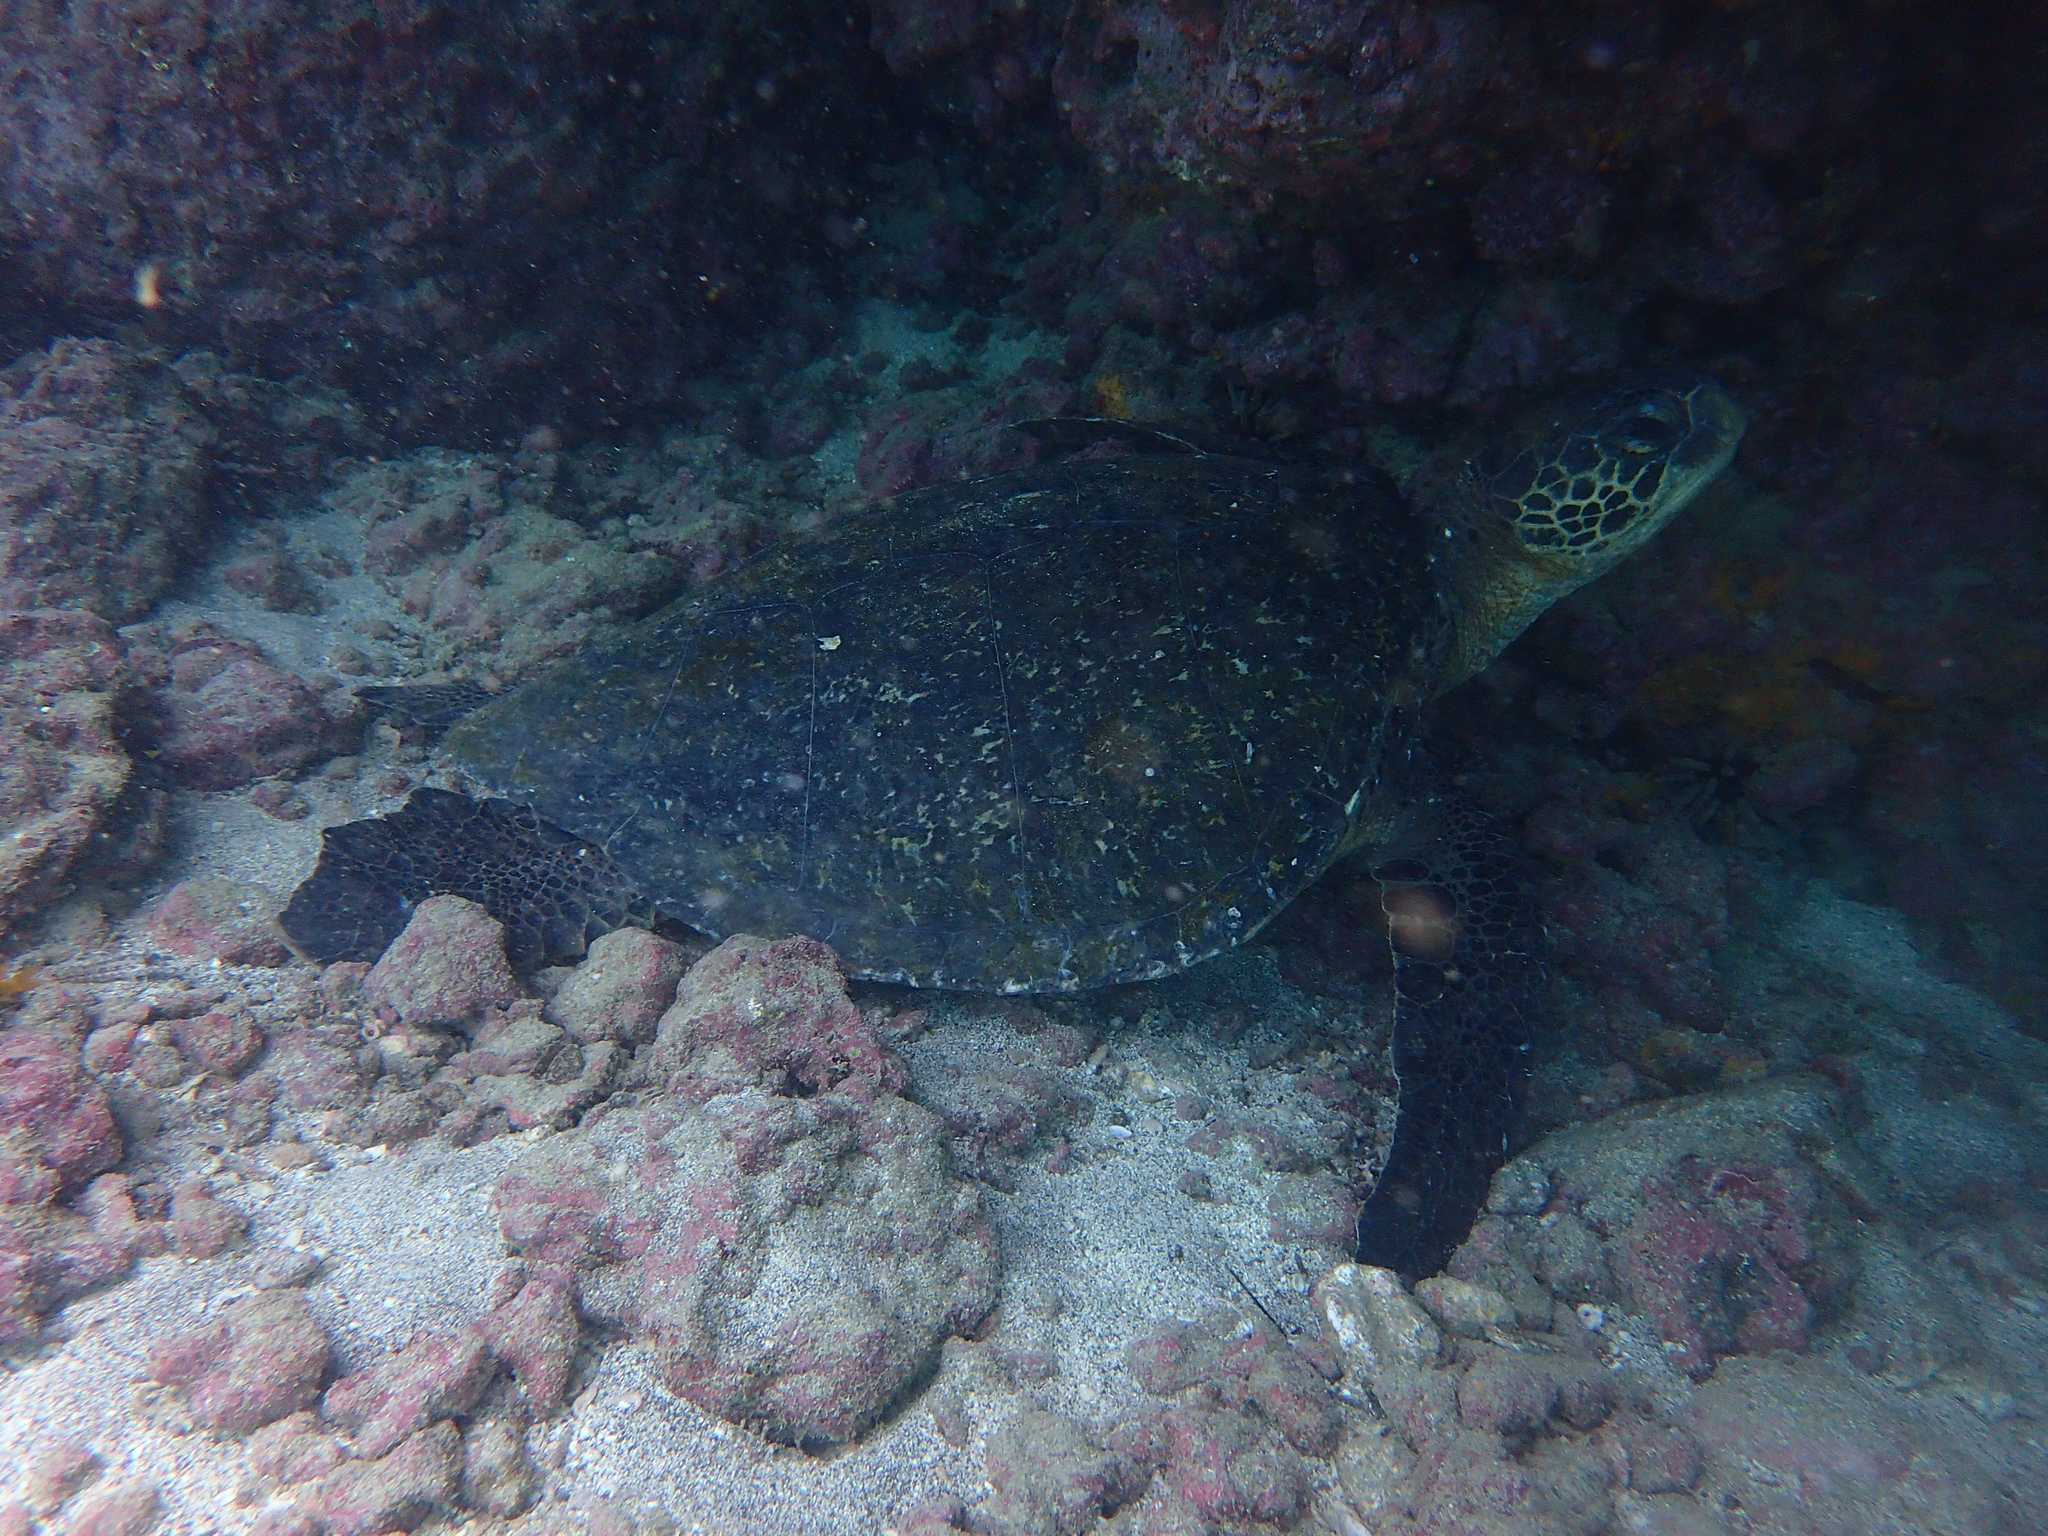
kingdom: Animalia
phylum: Chordata
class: Testudines
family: Cheloniidae
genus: Chelonia
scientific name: Chelonia mydas
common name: Green turtle
